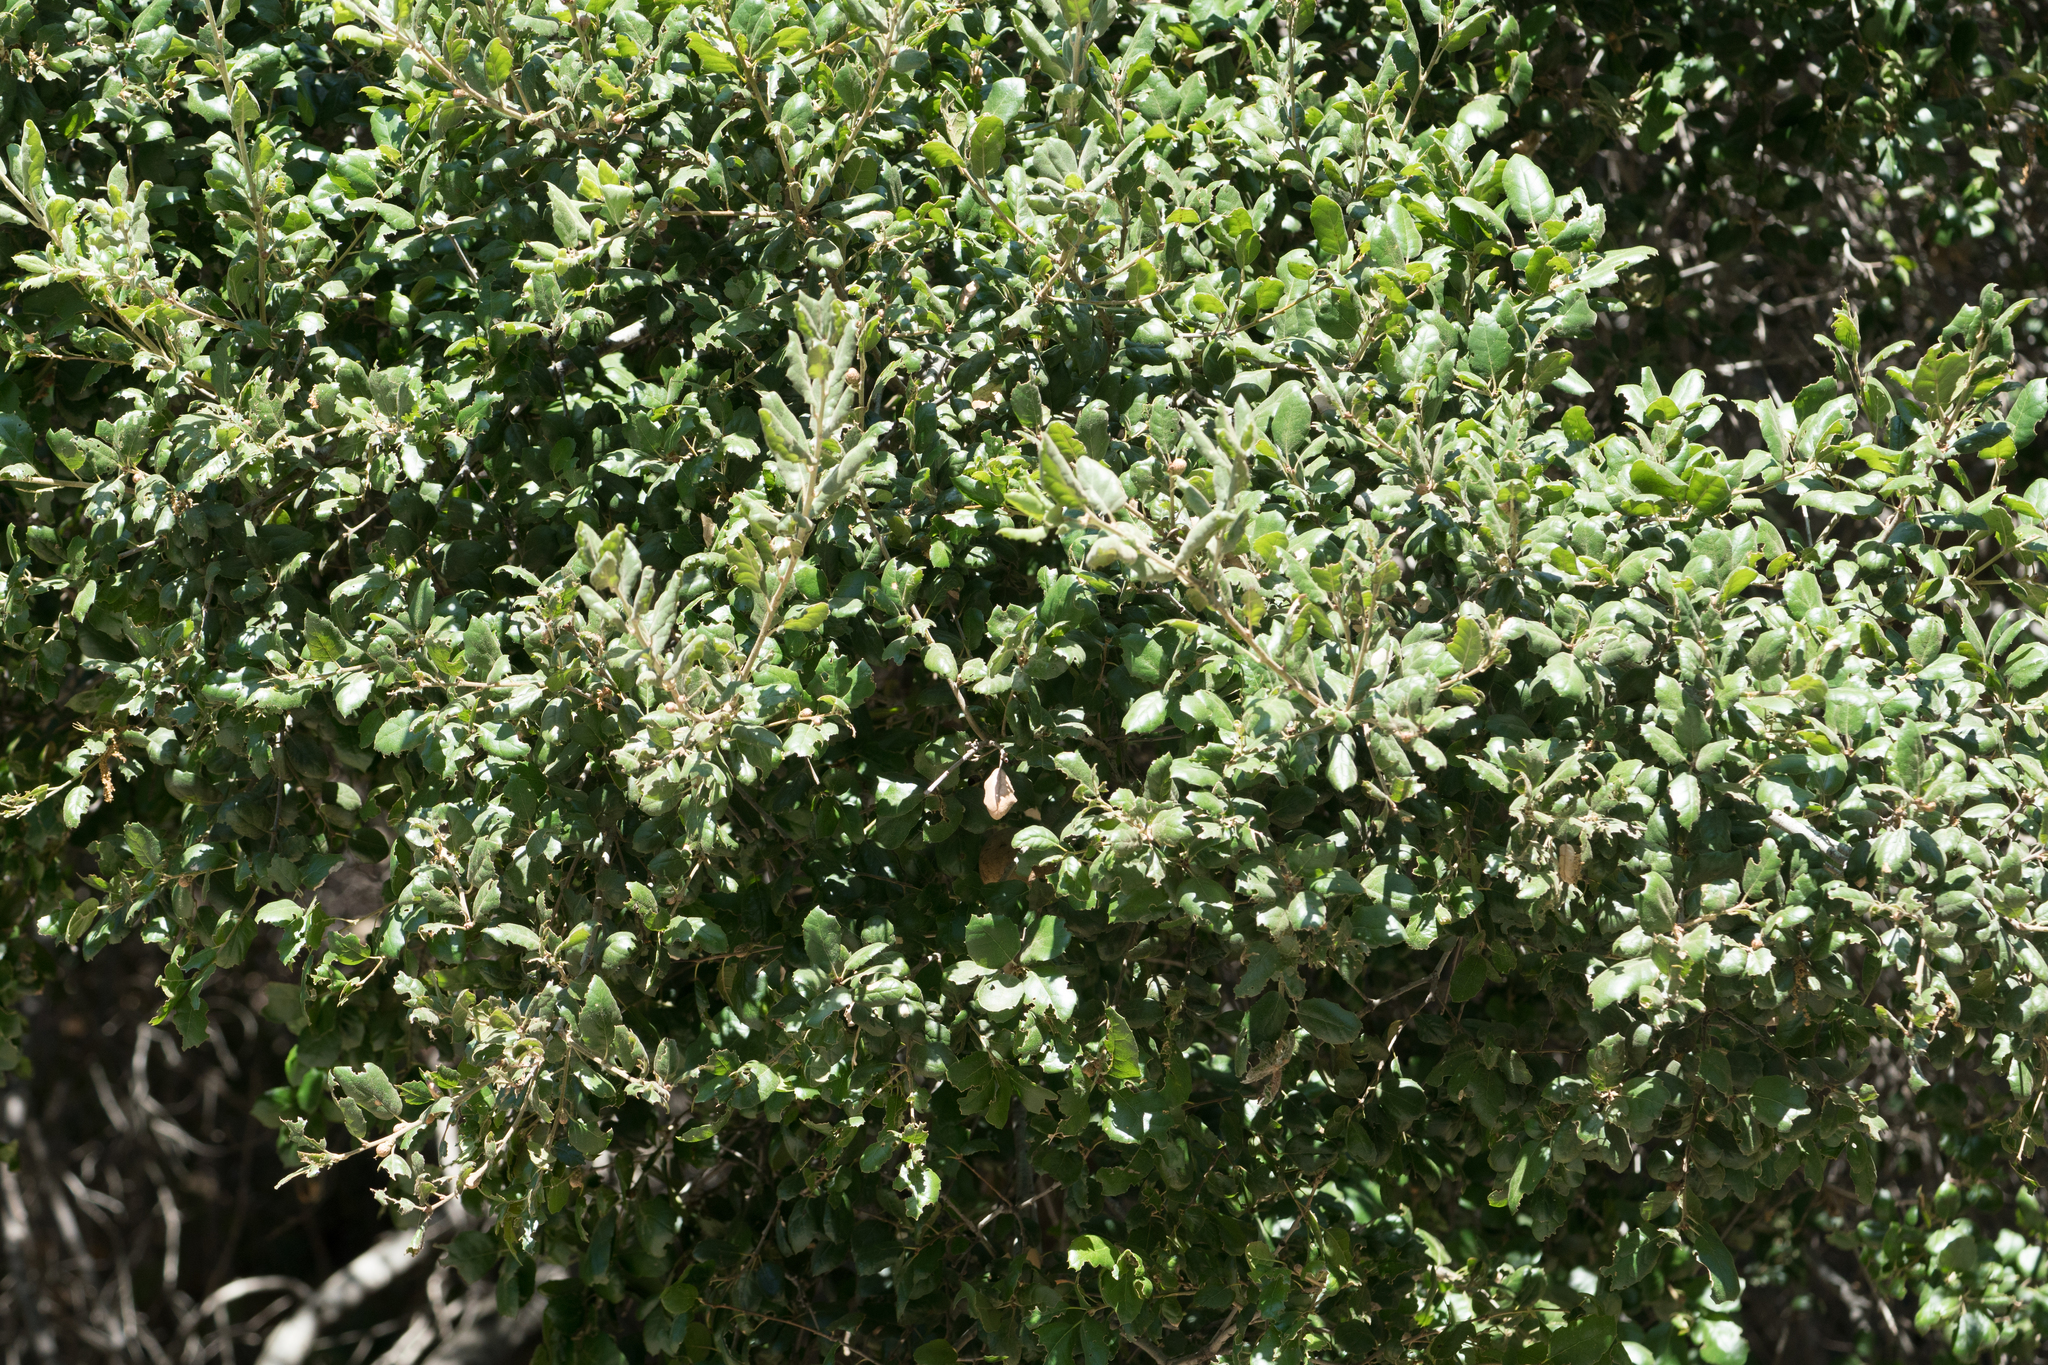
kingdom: Plantae
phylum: Tracheophyta
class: Magnoliopsida
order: Fagales
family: Fagaceae
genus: Quercus
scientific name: Quercus agrifolia
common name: California live oak
